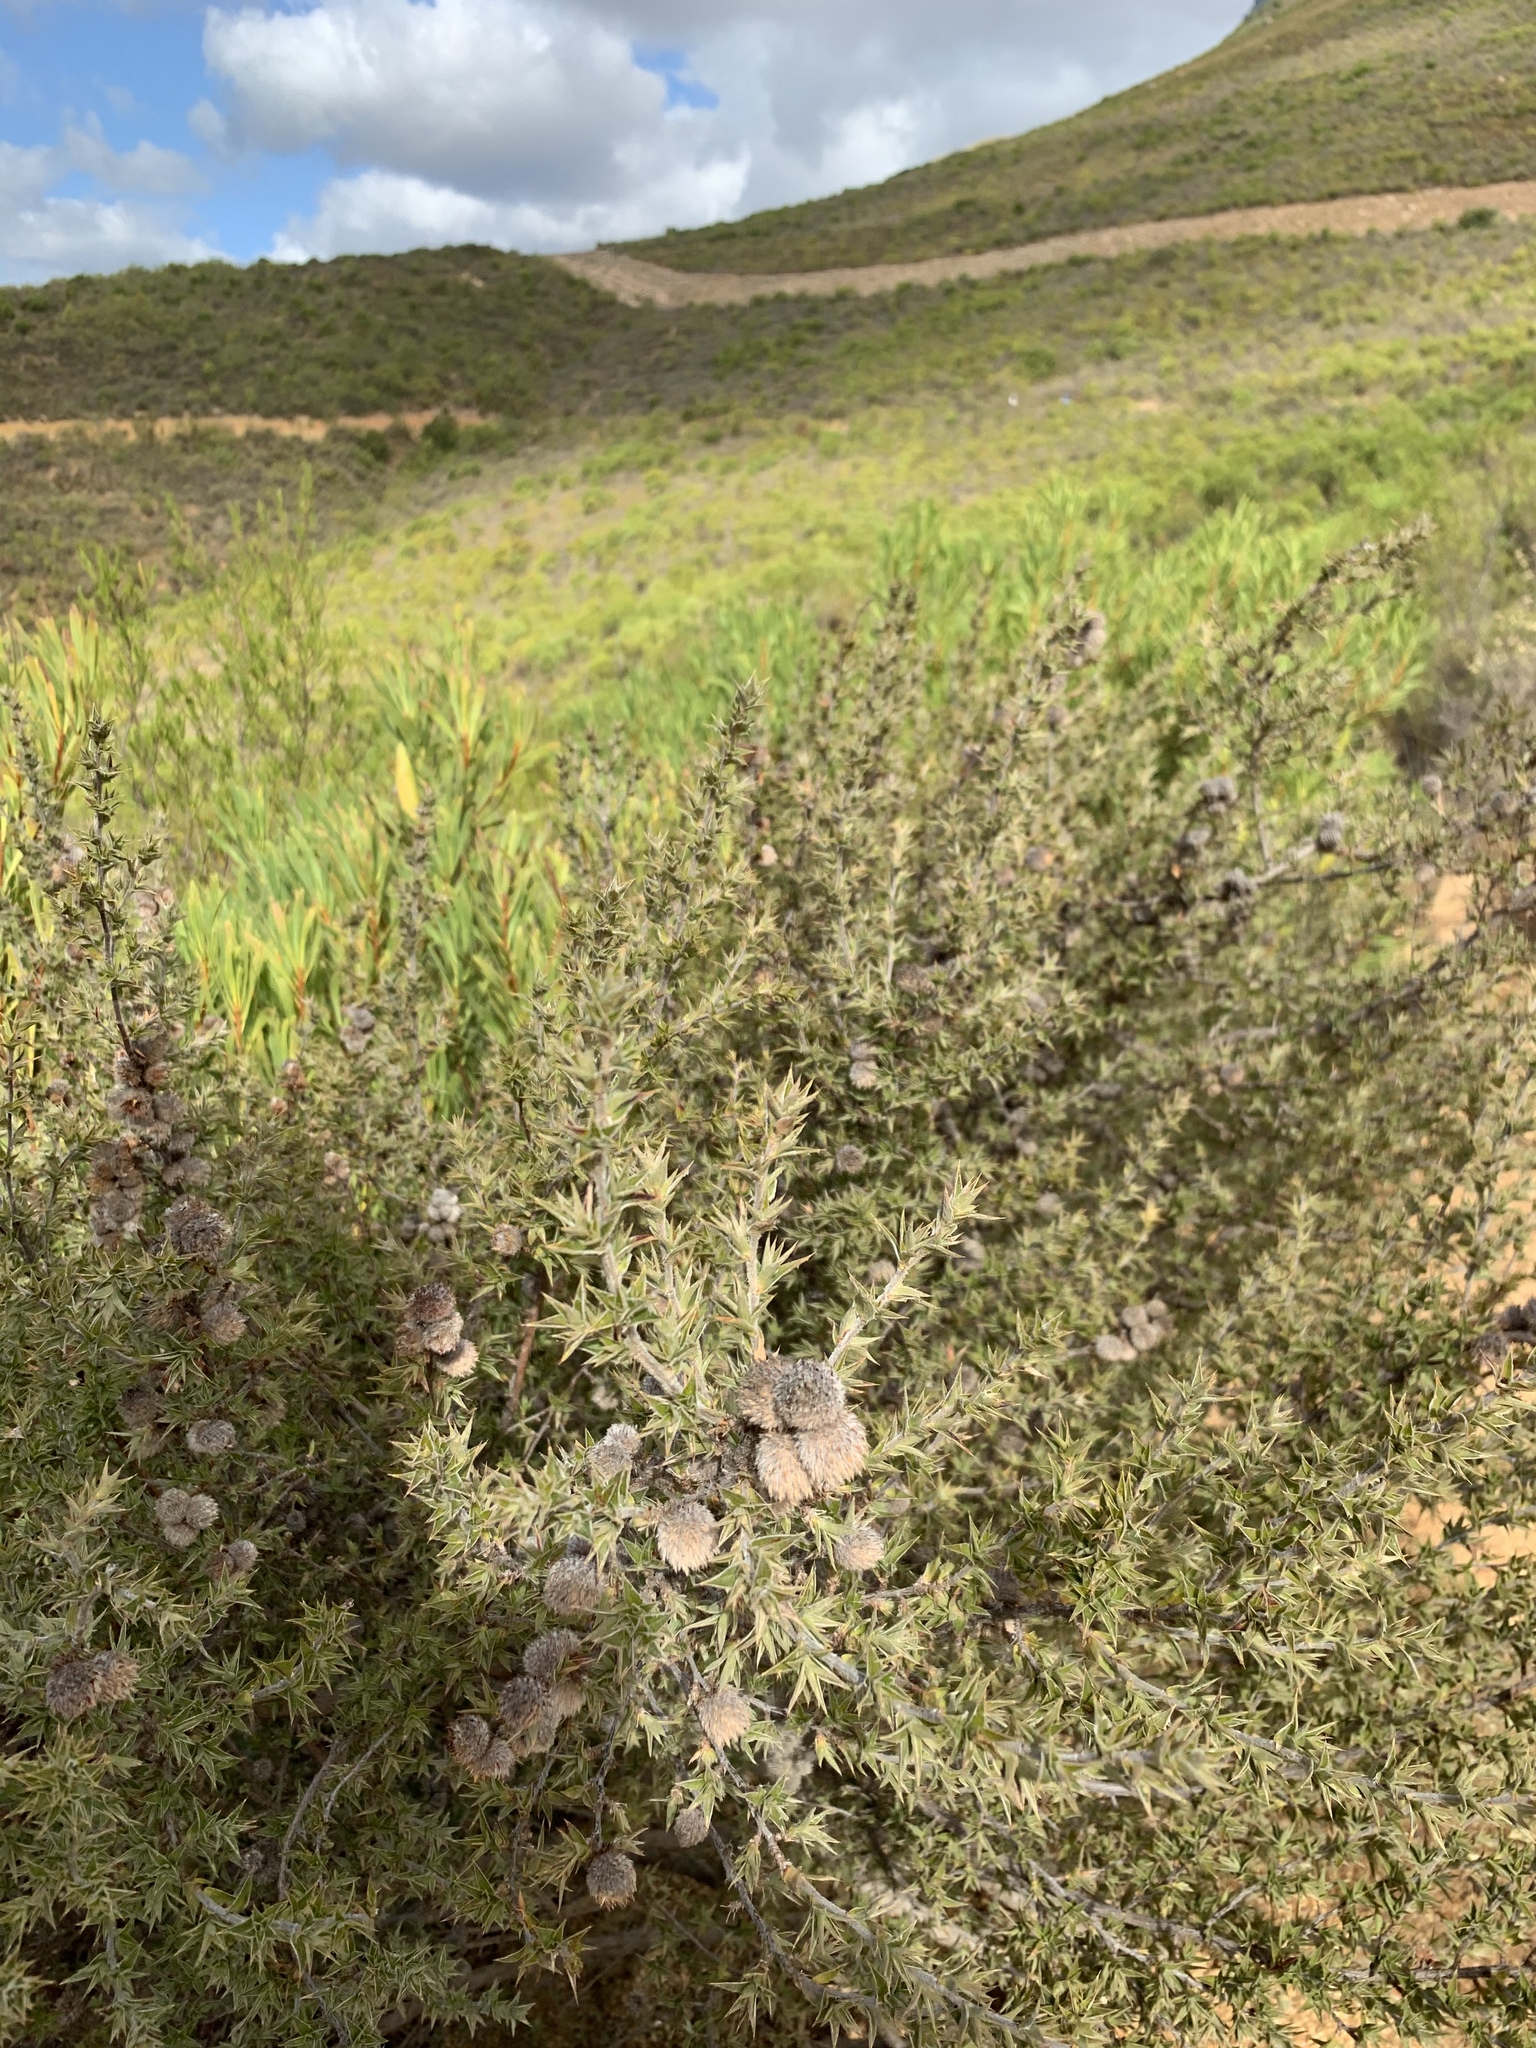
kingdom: Plantae
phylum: Tracheophyta
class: Magnoliopsida
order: Rosales
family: Rosaceae
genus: Cliffortia
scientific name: Cliffortia ruscifolia
